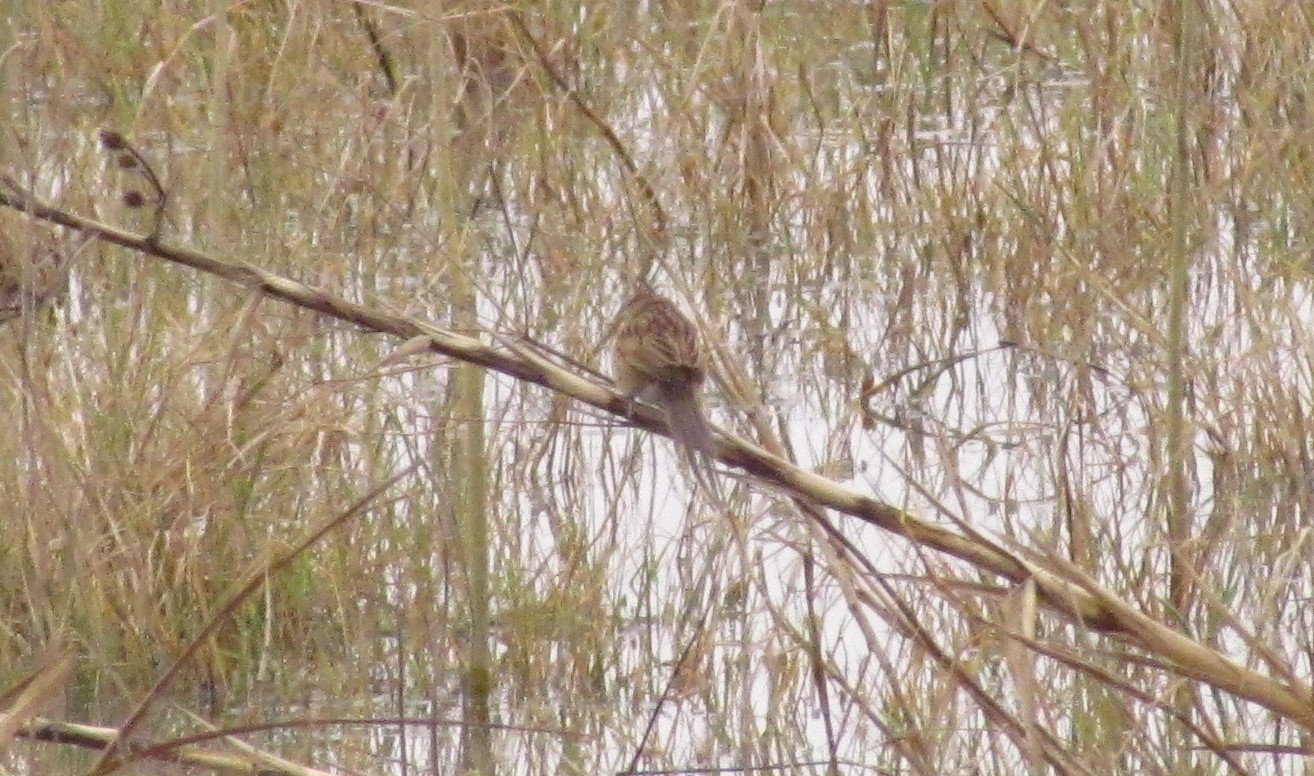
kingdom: Animalia
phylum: Chordata
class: Aves
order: Passeriformes
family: Furnariidae
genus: Schoeniophylax
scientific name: Schoeniophylax phryganophilus
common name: Chotoy spinetail
